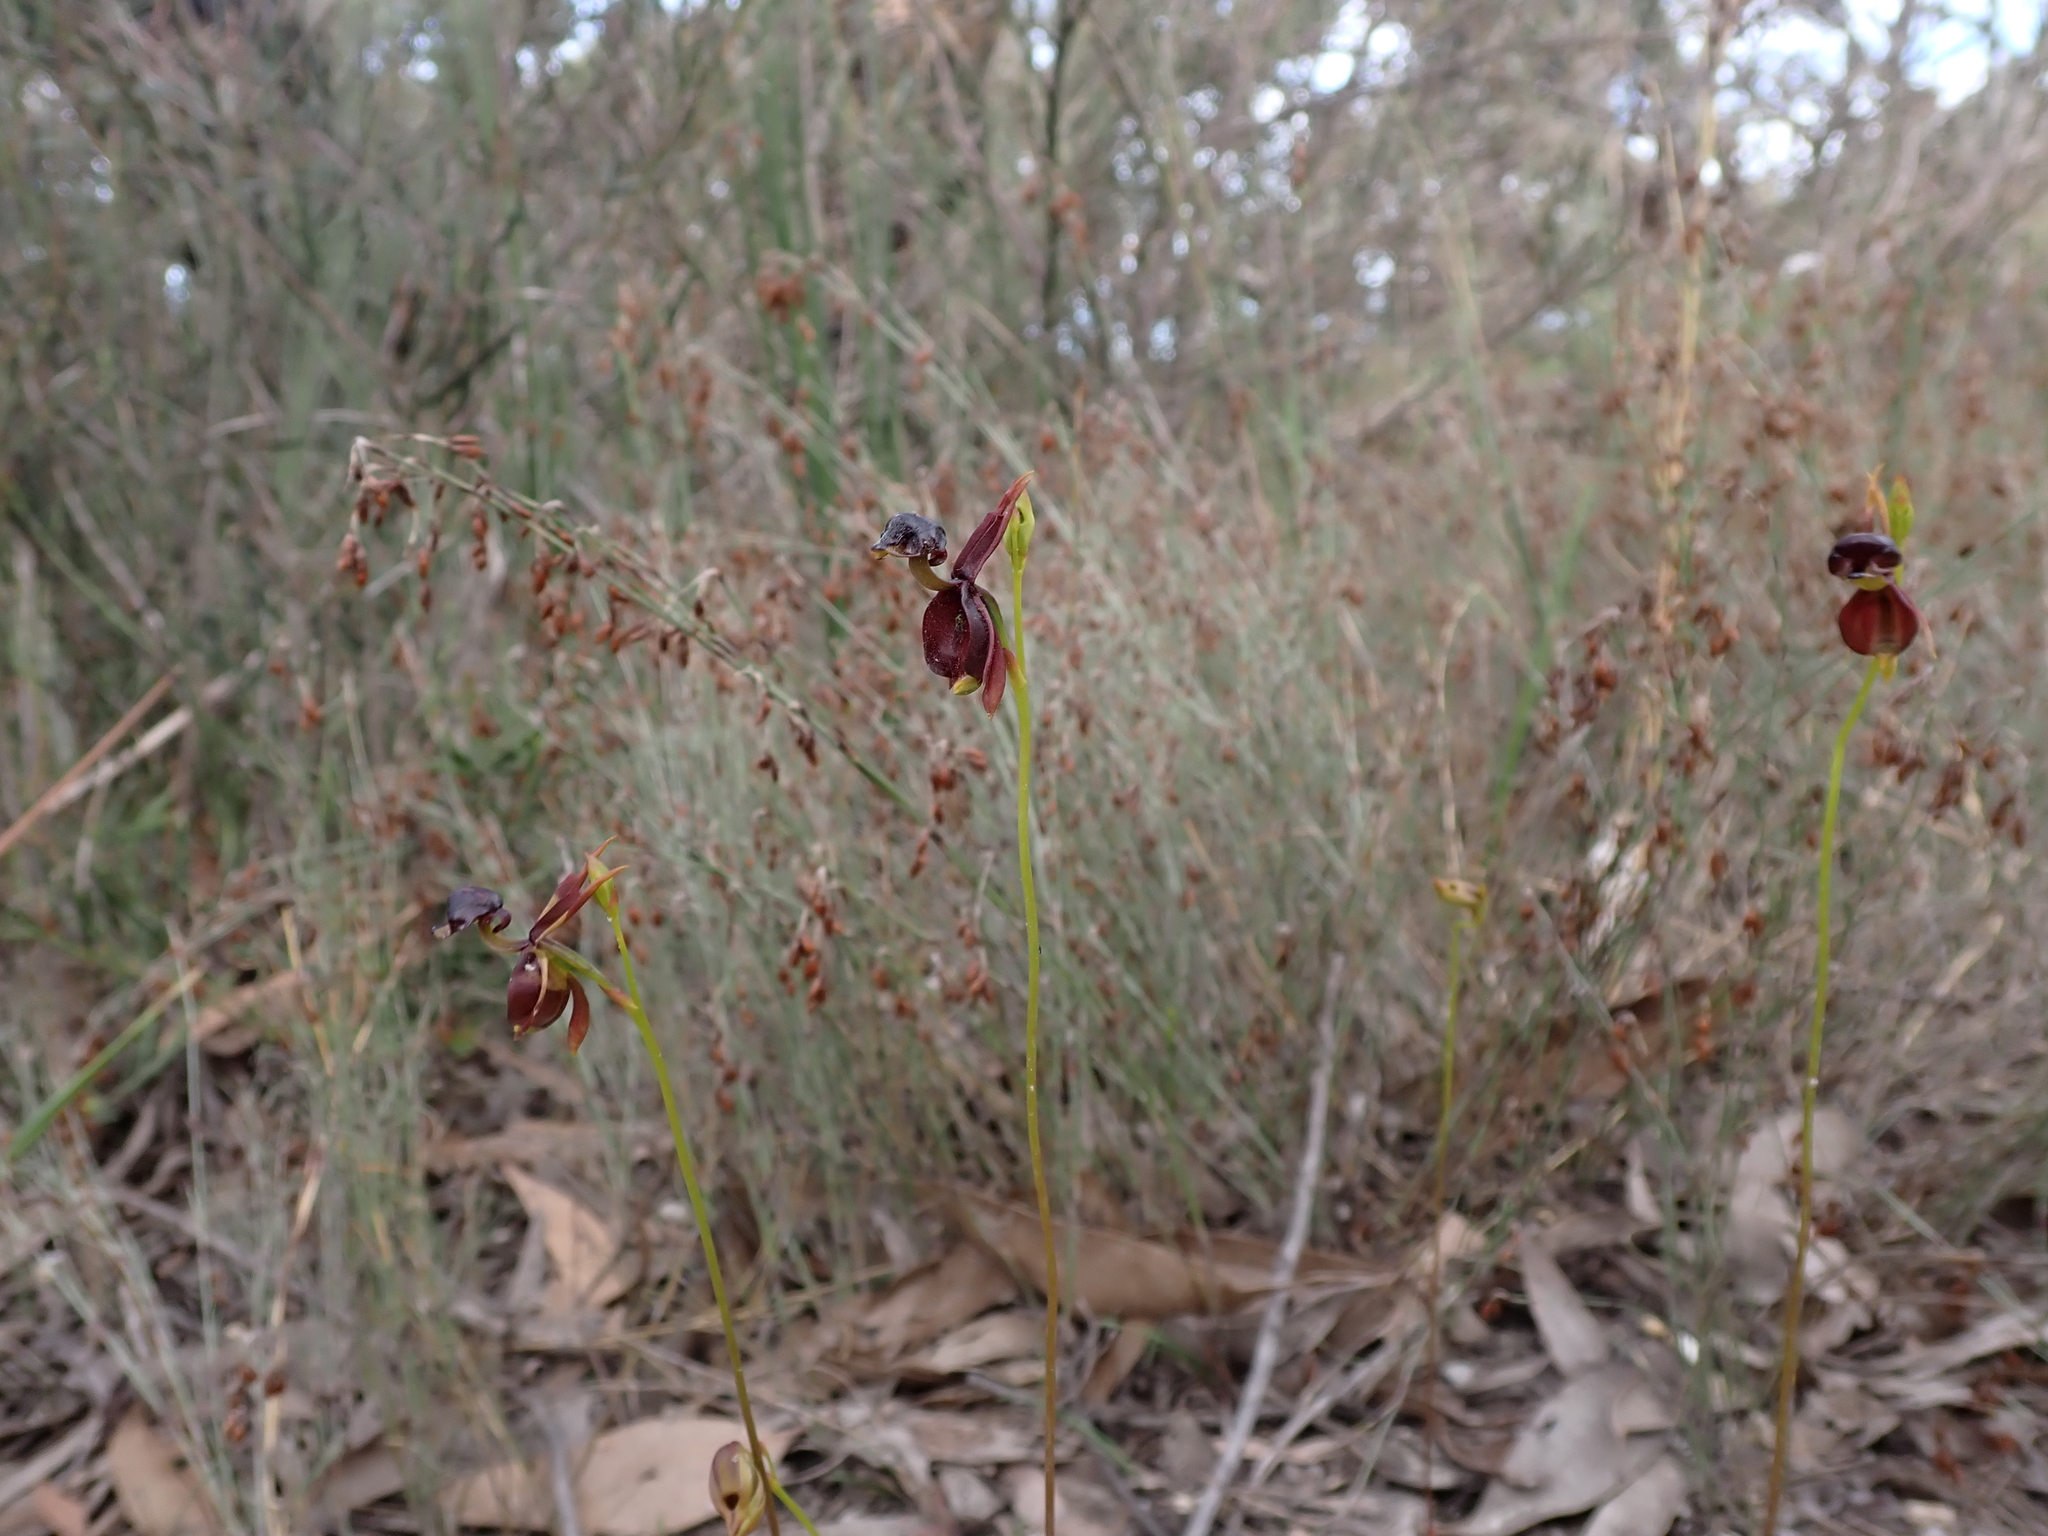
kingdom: Plantae
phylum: Tracheophyta
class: Liliopsida
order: Asparagales
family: Orchidaceae
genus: Caleana
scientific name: Caleana major
